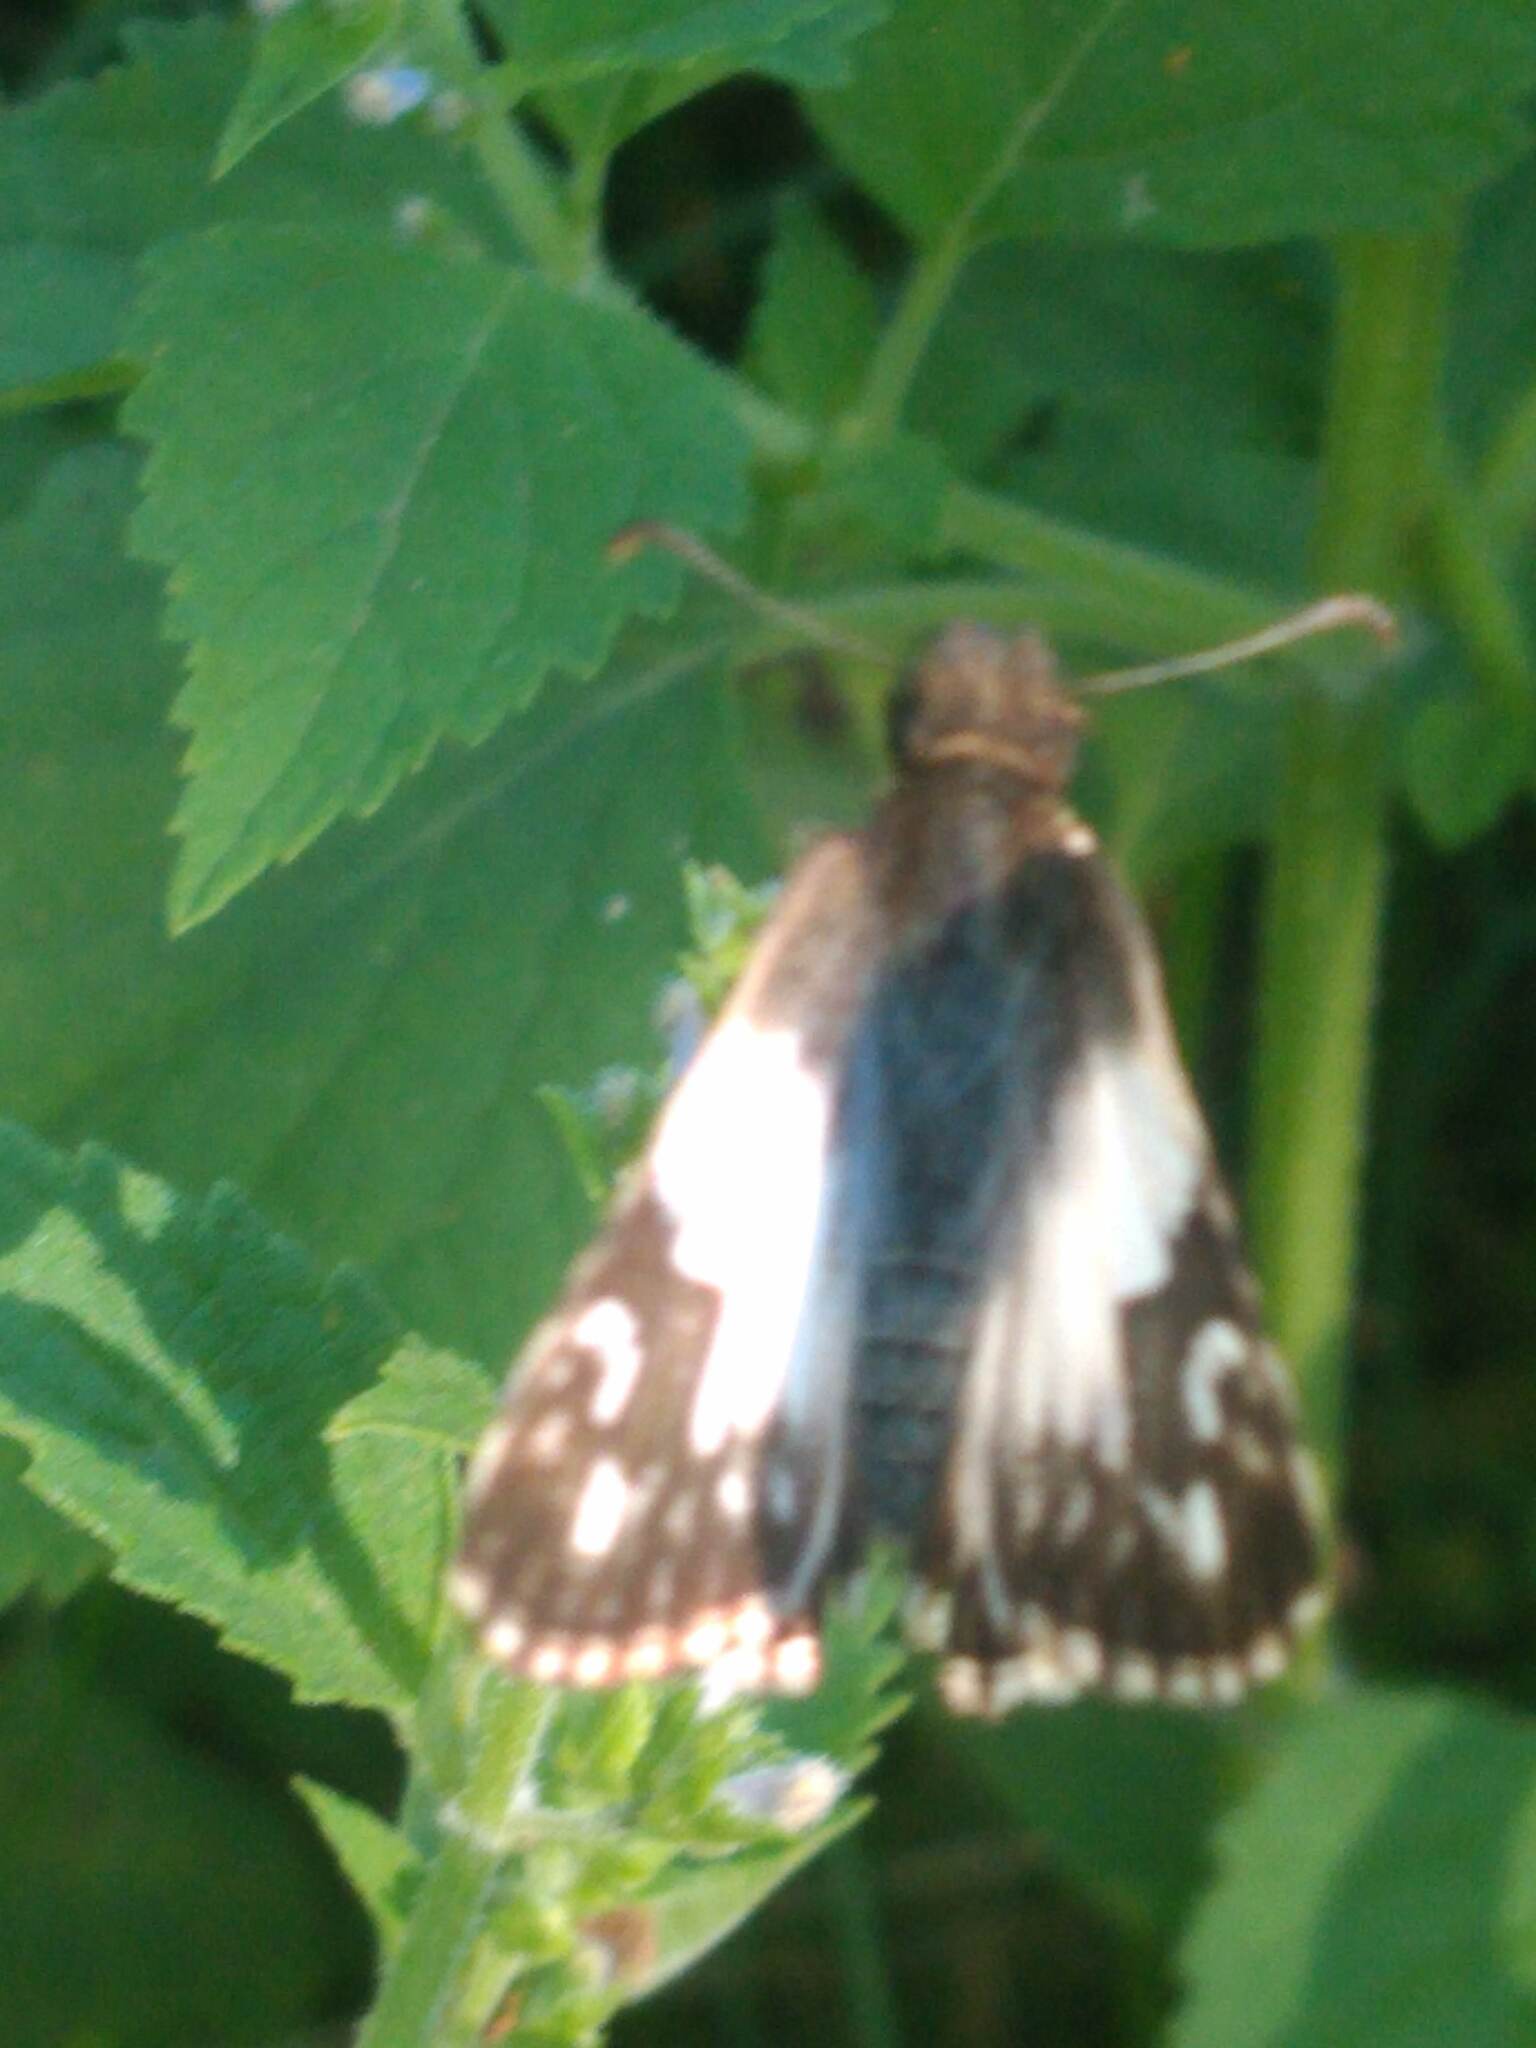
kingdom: Animalia
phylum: Arthropoda
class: Insecta
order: Lepidoptera
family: Hesperiidae
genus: Heliopetes
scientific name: Heliopetes omrina
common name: Stained white-skipper
